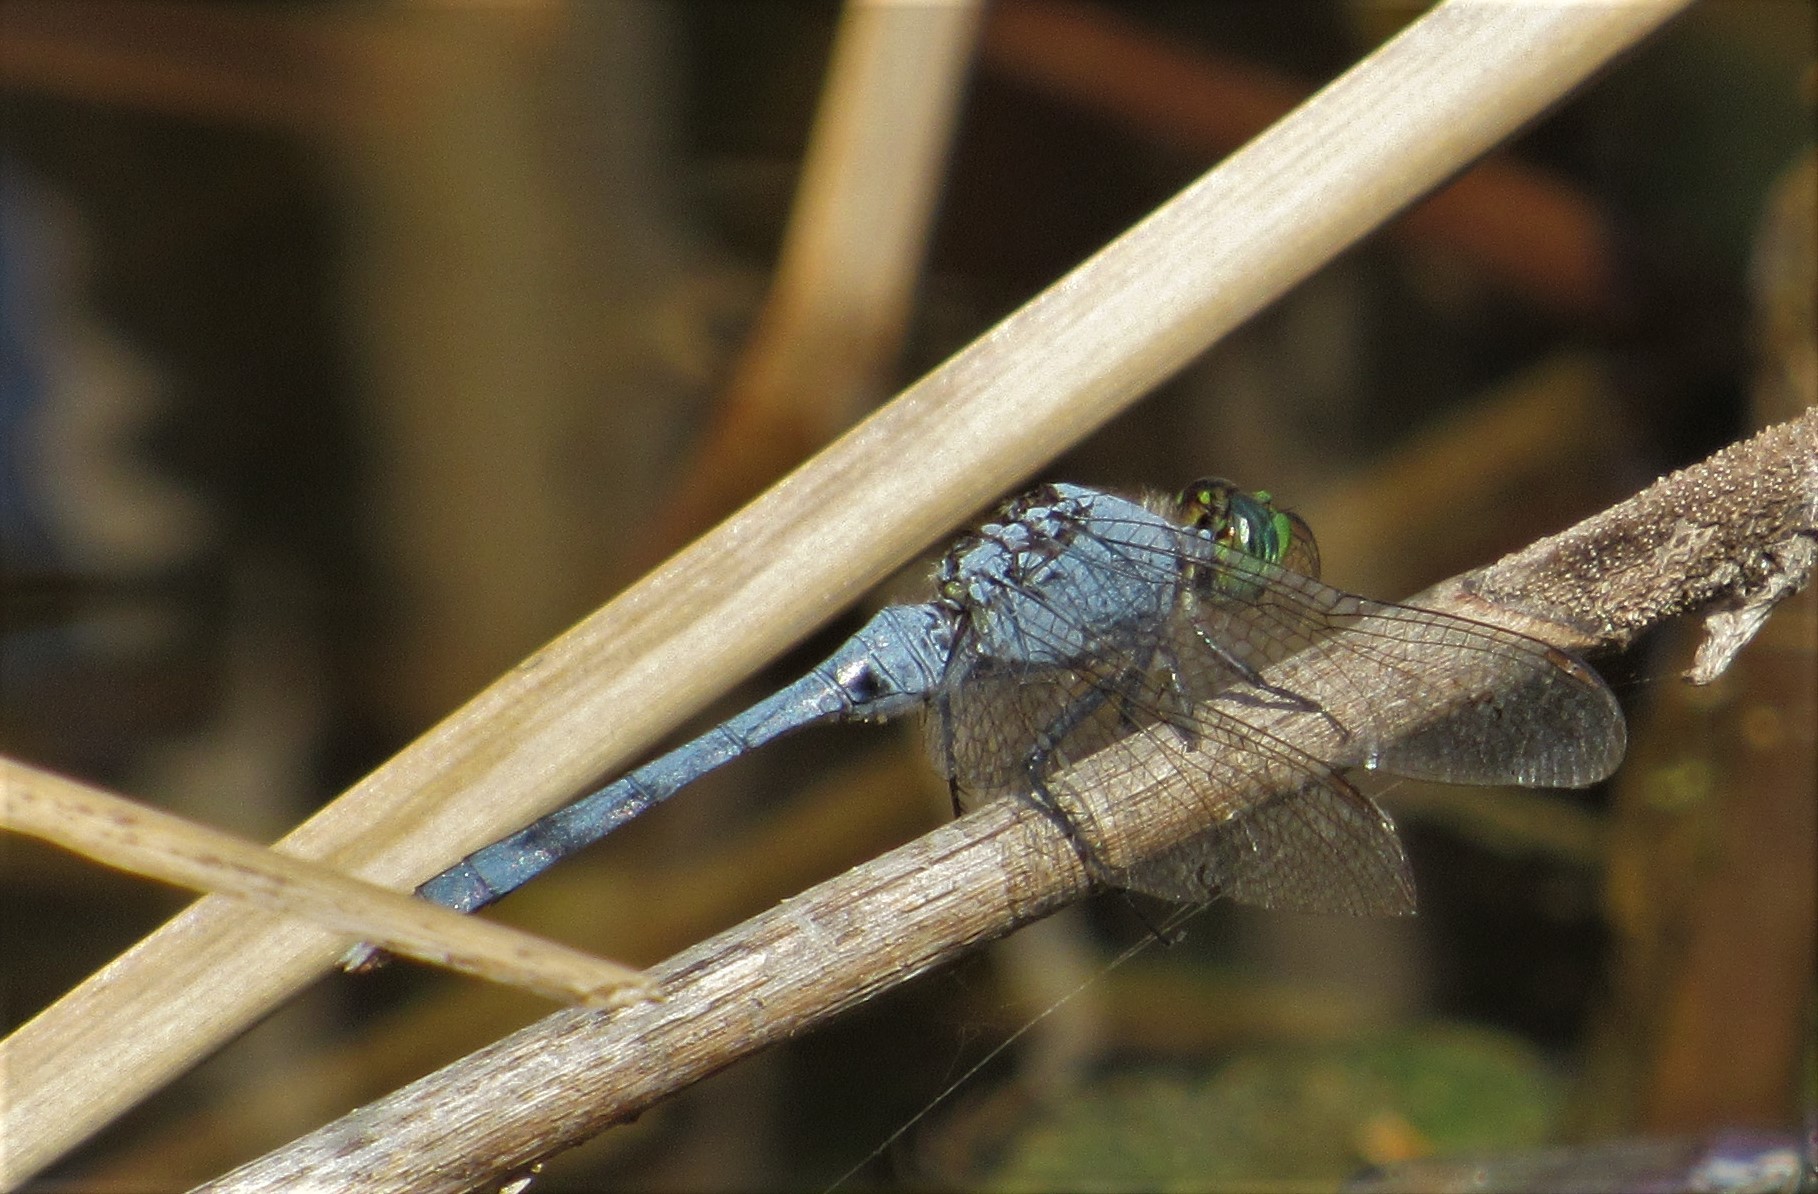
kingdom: Animalia
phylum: Arthropoda
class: Insecta
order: Odonata
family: Libellulidae
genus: Erythemis
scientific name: Erythemis simplicicollis
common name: Eastern pondhawk
